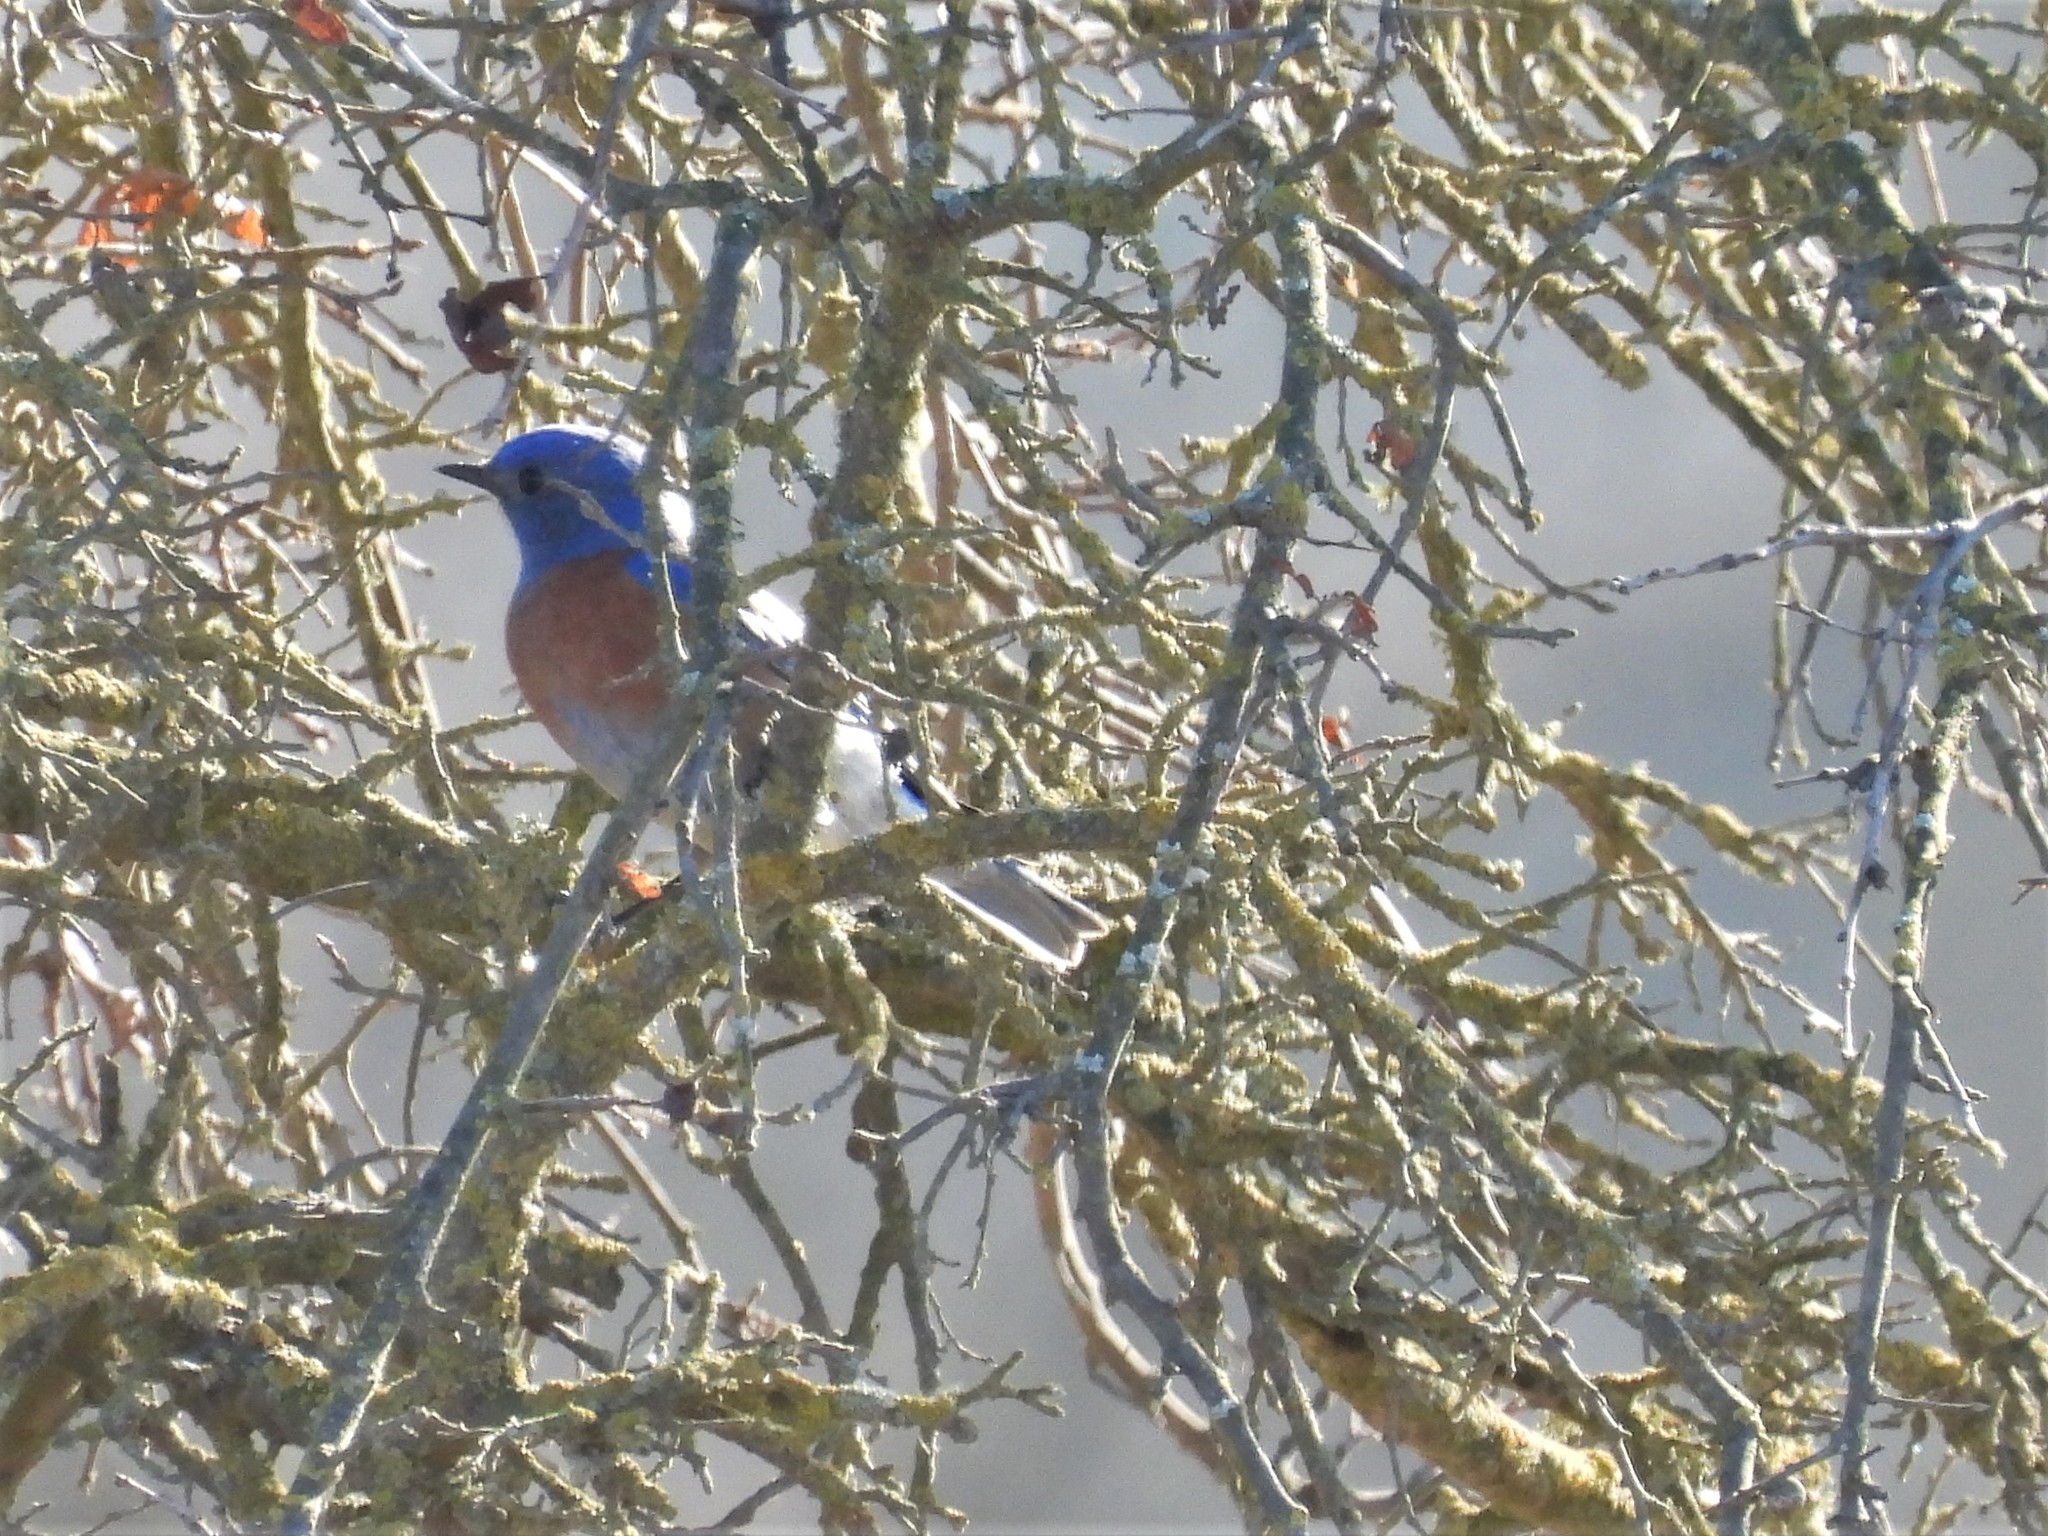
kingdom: Animalia
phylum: Chordata
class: Aves
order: Passeriformes
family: Turdidae
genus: Sialia
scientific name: Sialia mexicana
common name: Western bluebird
